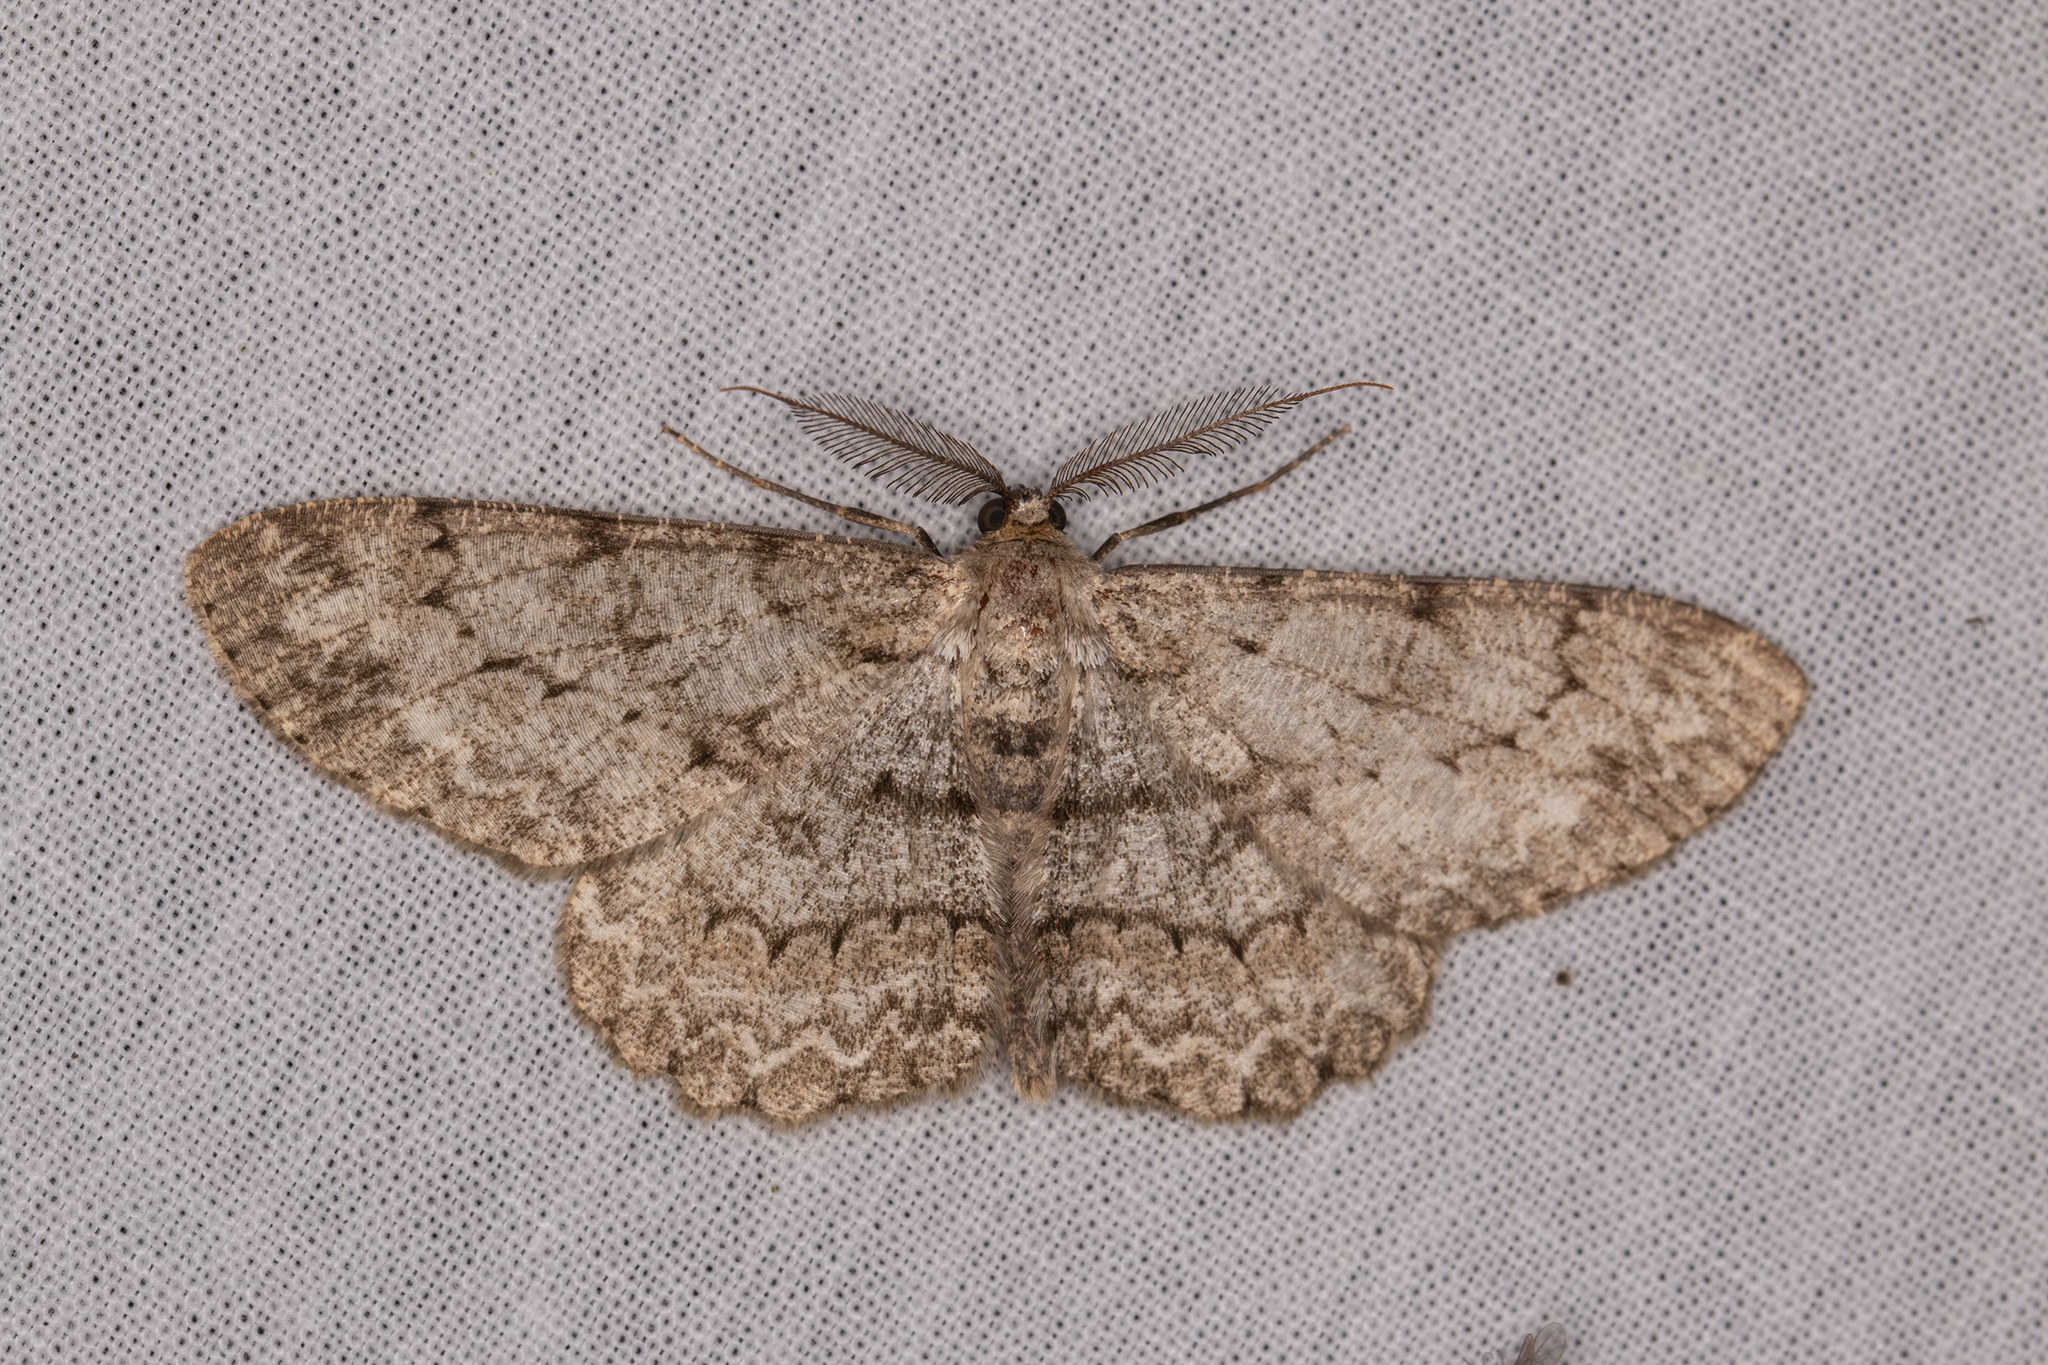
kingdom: Animalia
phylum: Arthropoda
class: Insecta
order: Lepidoptera
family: Geometridae
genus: Hypomecis
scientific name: Hypomecis punctinalis
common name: Pale oak beauty
